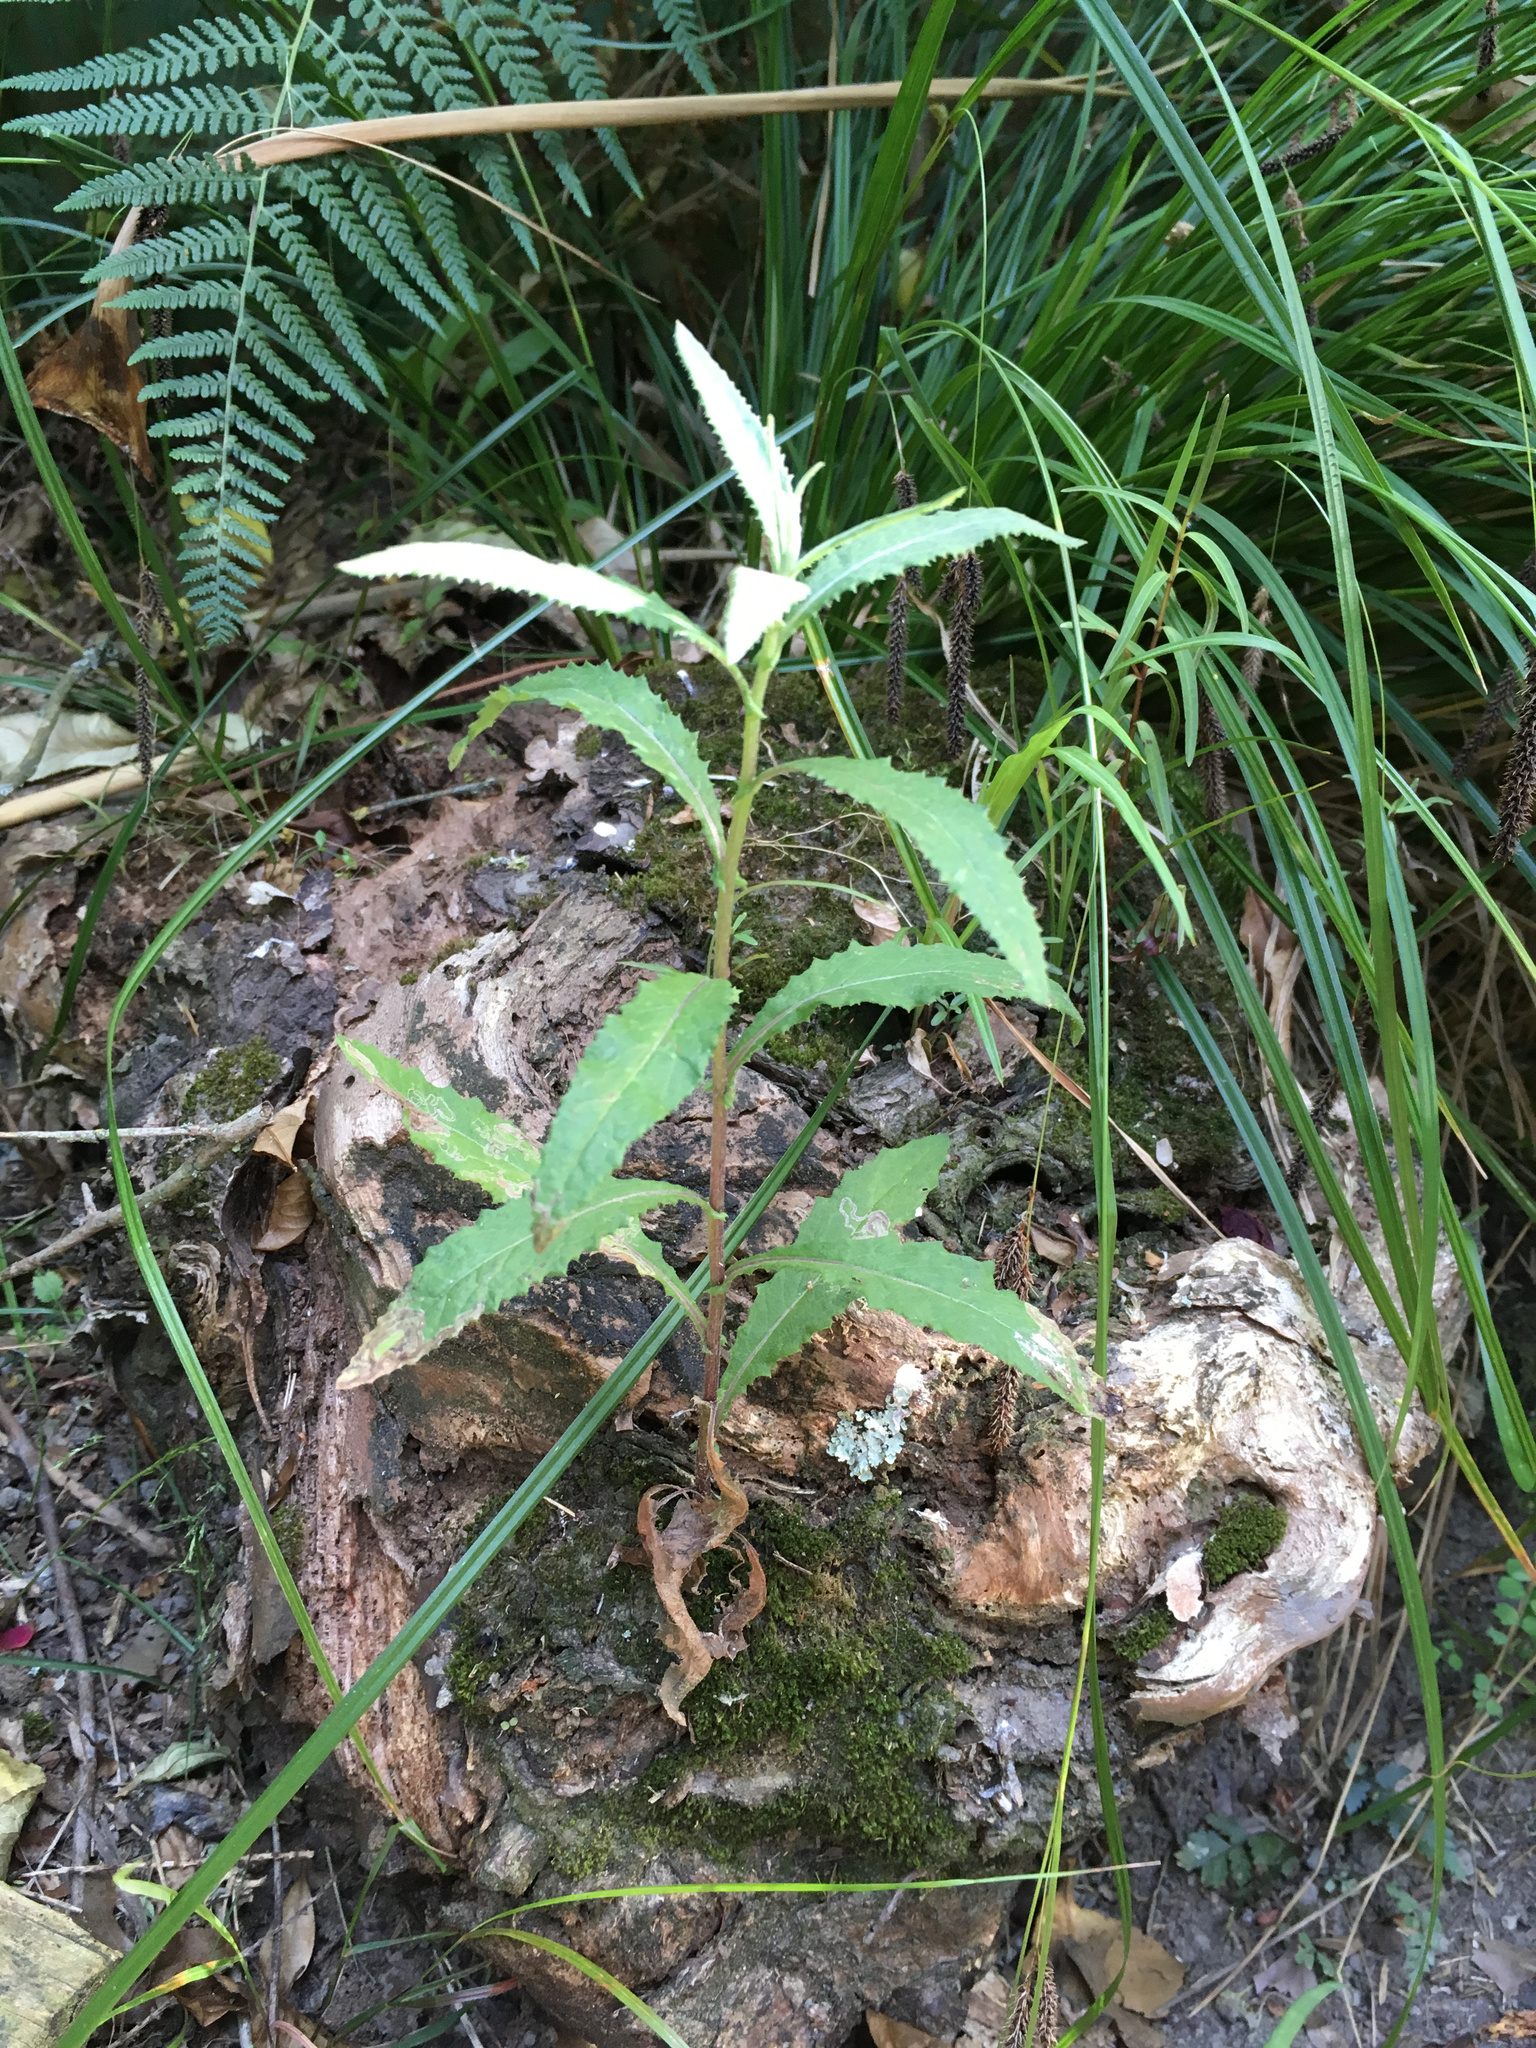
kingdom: Plantae
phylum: Tracheophyta
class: Magnoliopsida
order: Asterales
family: Asteraceae
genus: Senecio
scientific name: Senecio minimus
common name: Toothed fireweed
